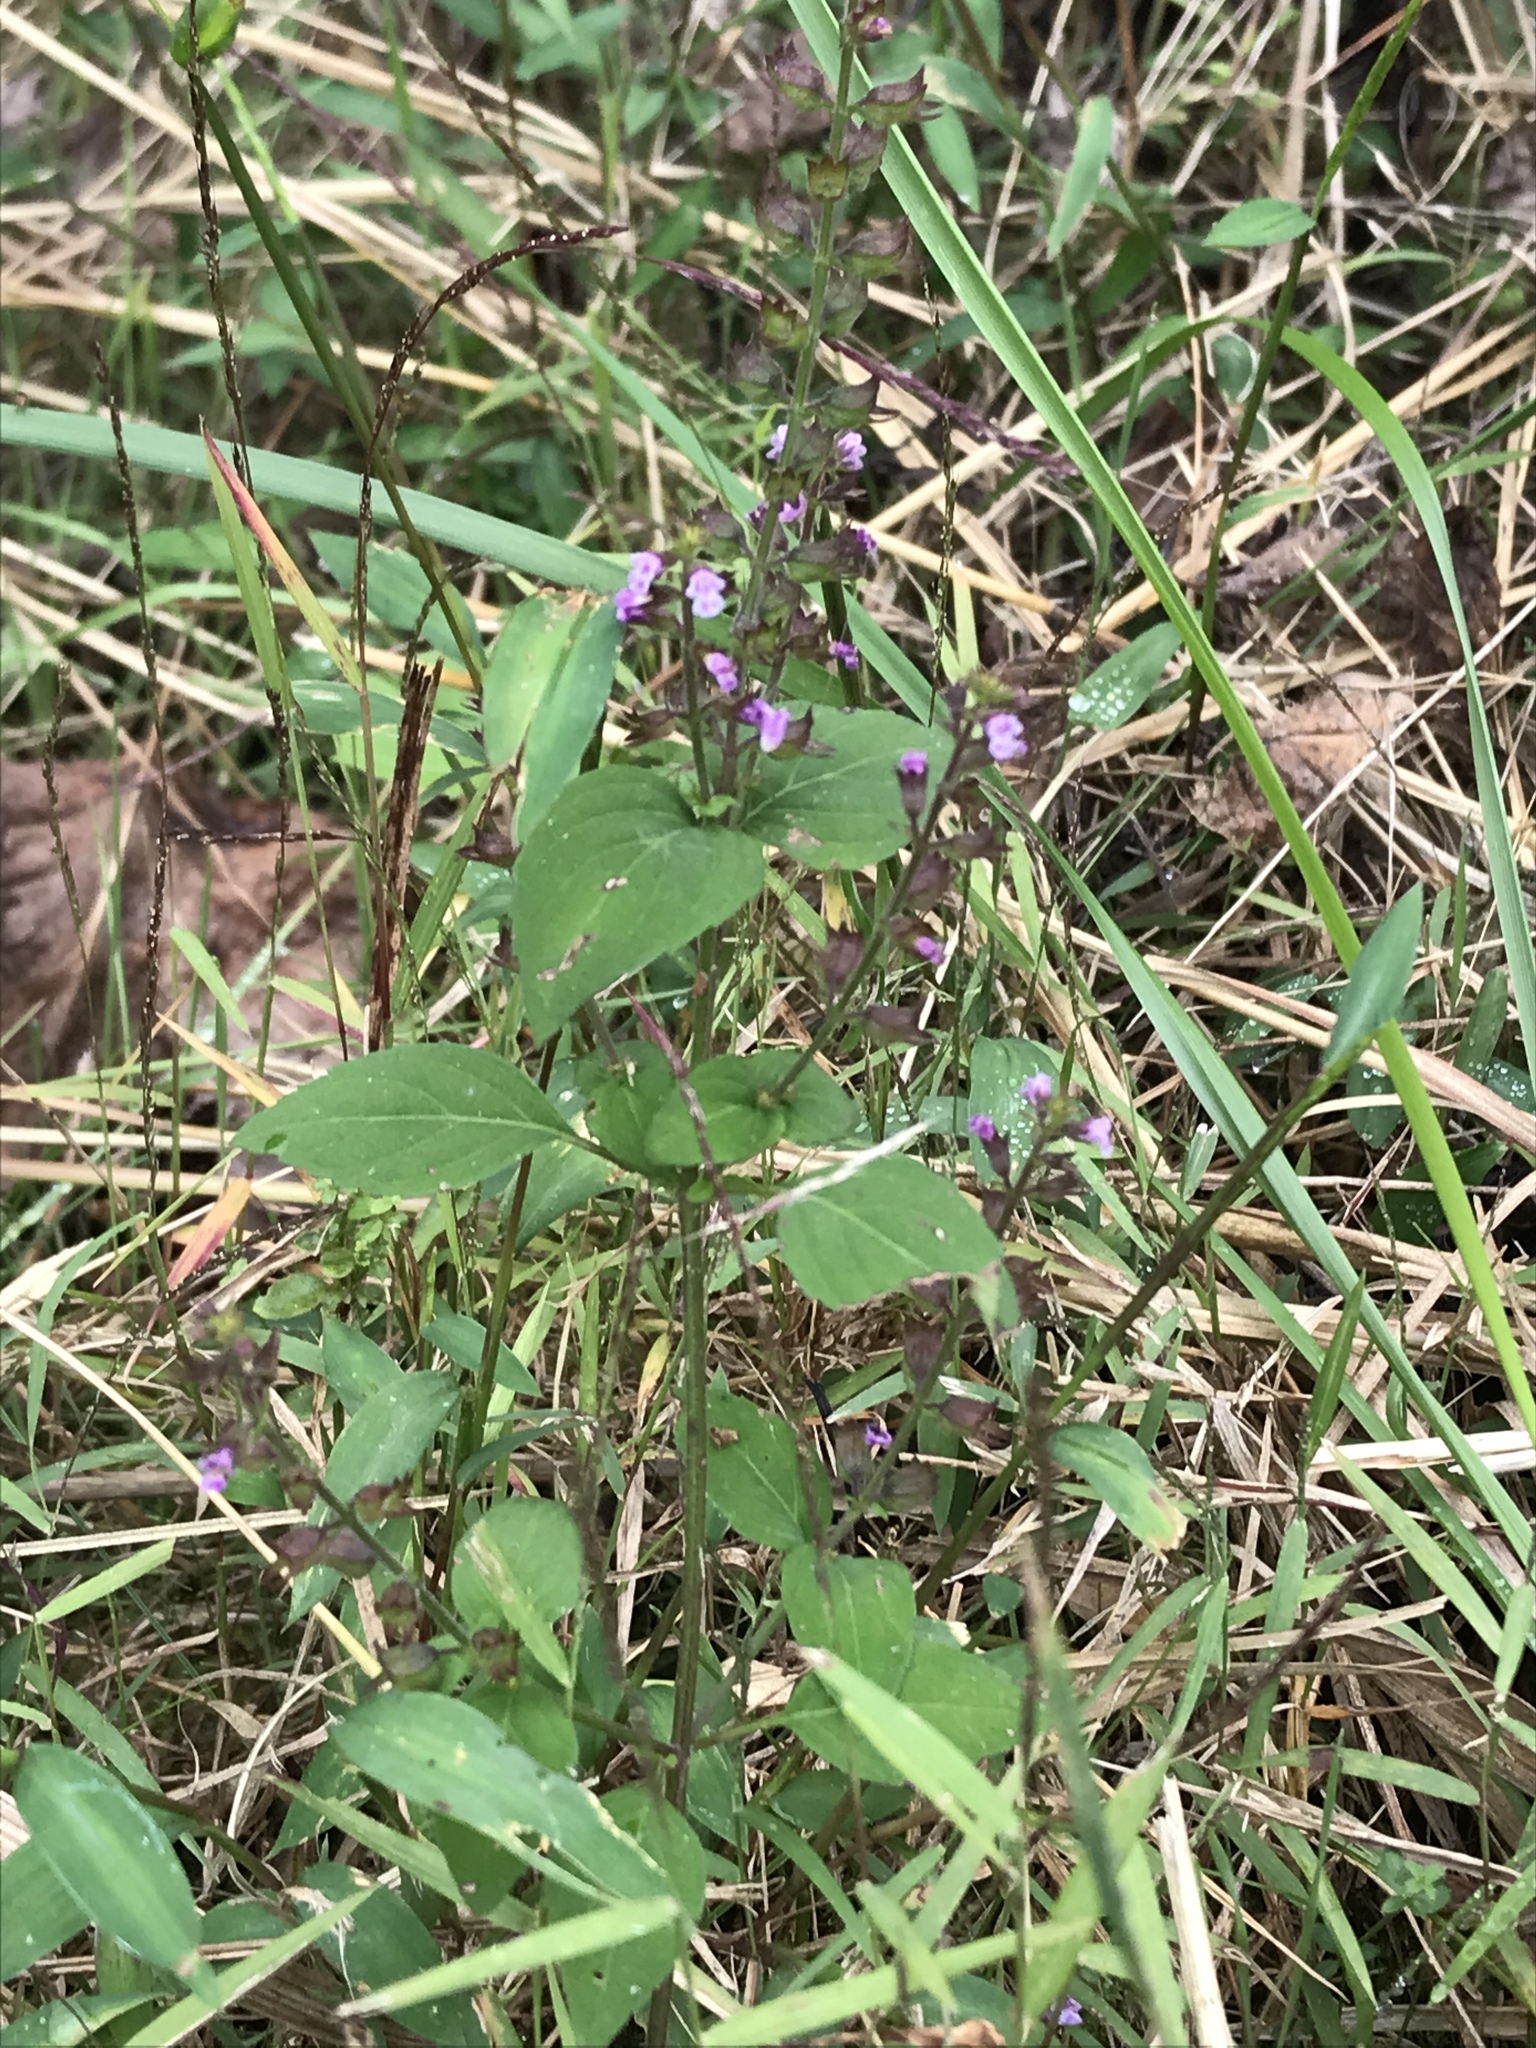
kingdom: Plantae
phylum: Tracheophyta
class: Magnoliopsida
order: Lamiales
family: Lamiaceae
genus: Mosla
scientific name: Mosla dianthera
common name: Miniature beefsteakplant
